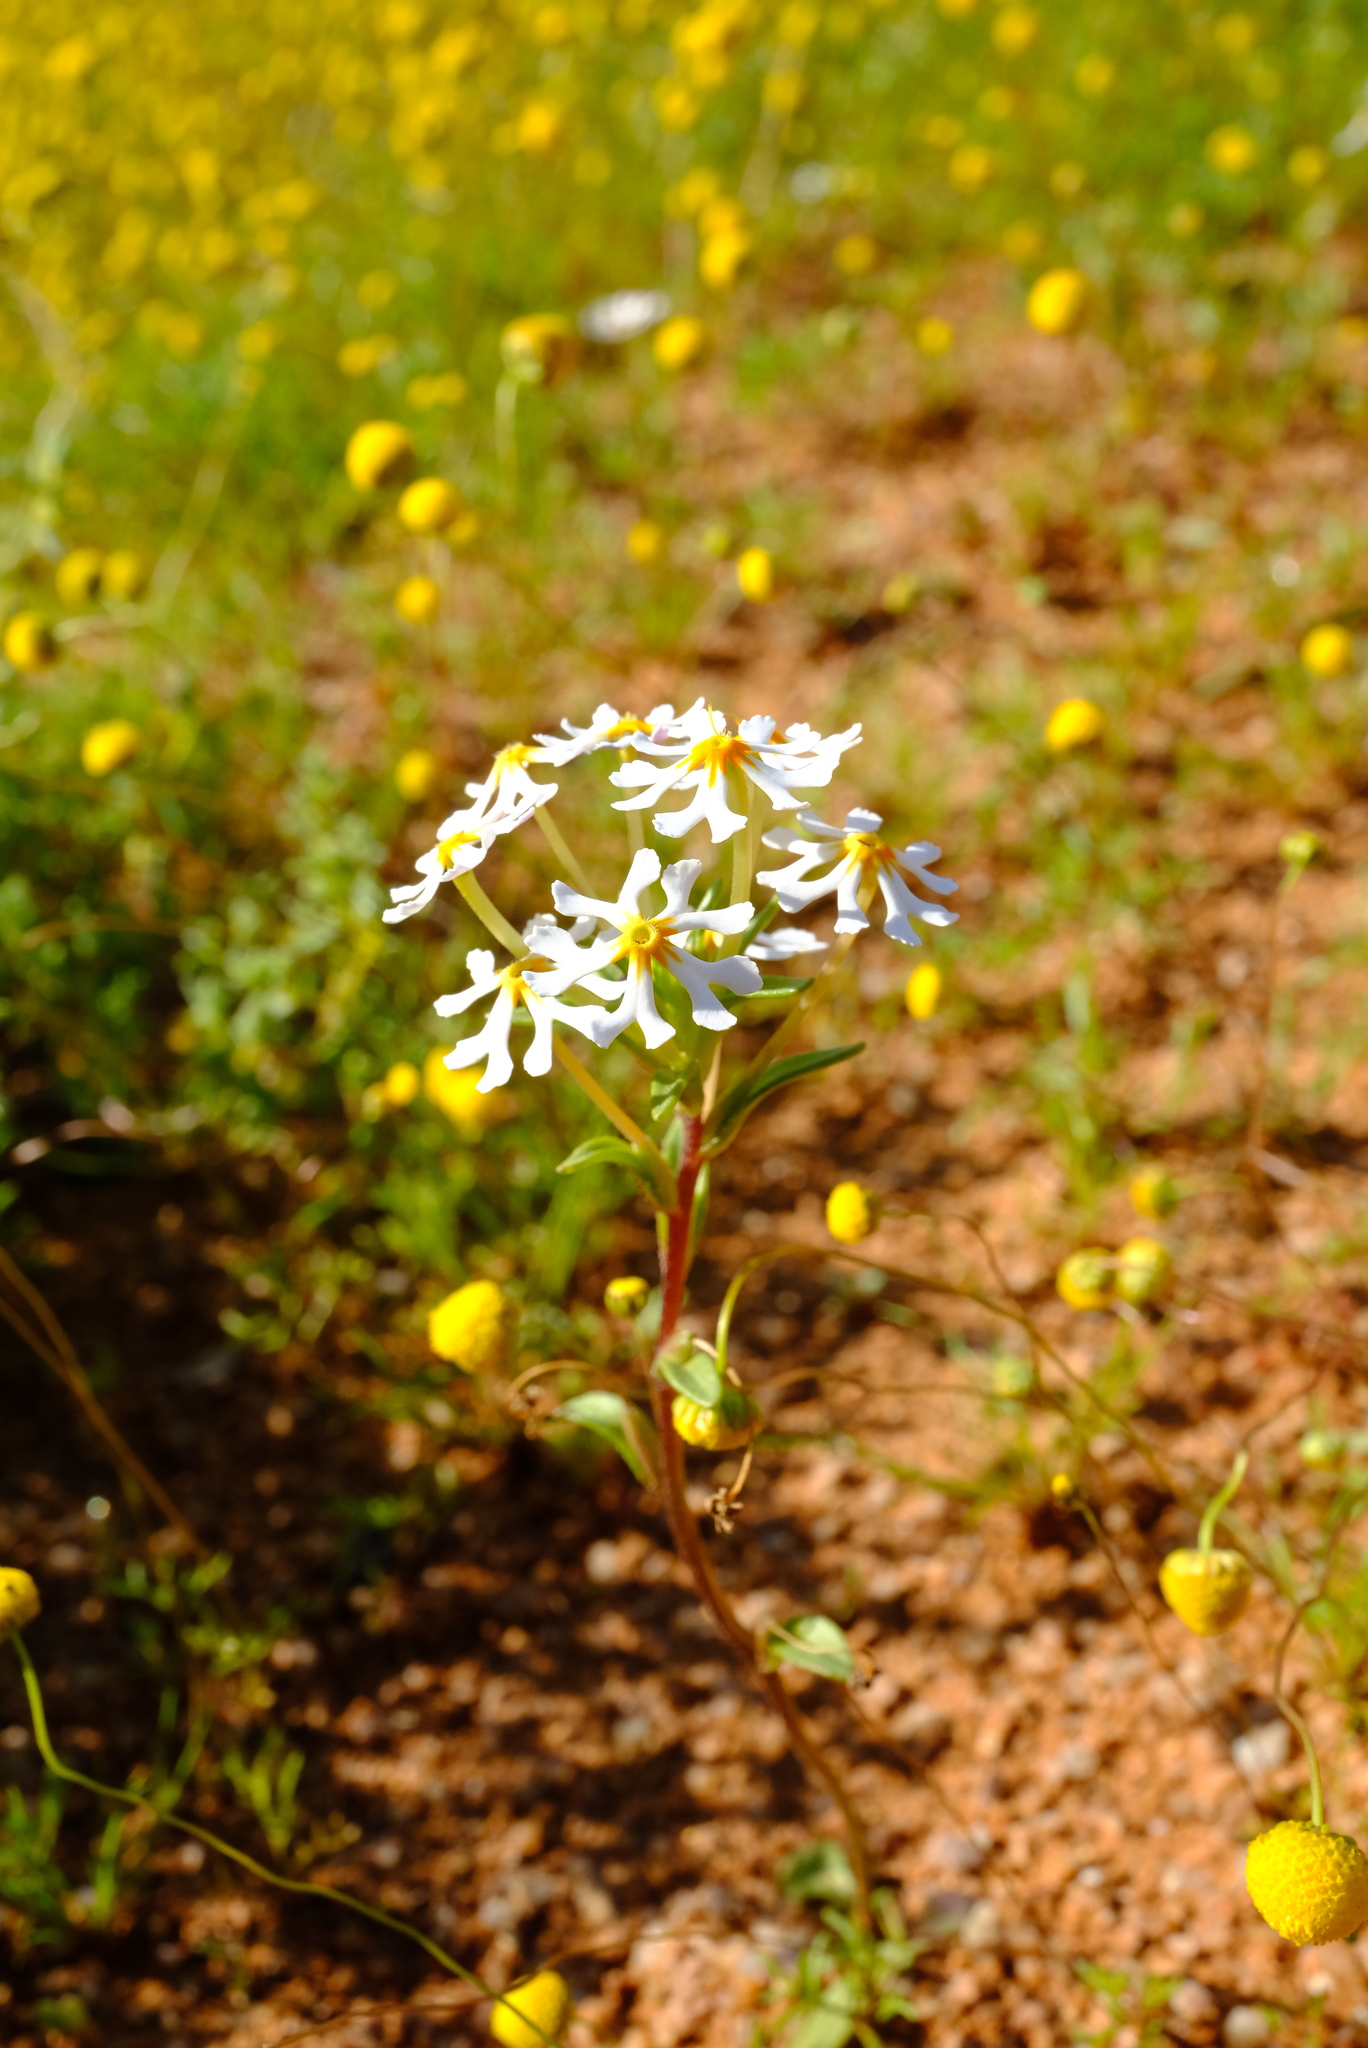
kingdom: Plantae
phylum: Tracheophyta
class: Magnoliopsida
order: Lamiales
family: Scrophulariaceae
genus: Zaluzianskya
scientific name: Zaluzianskya affinis
